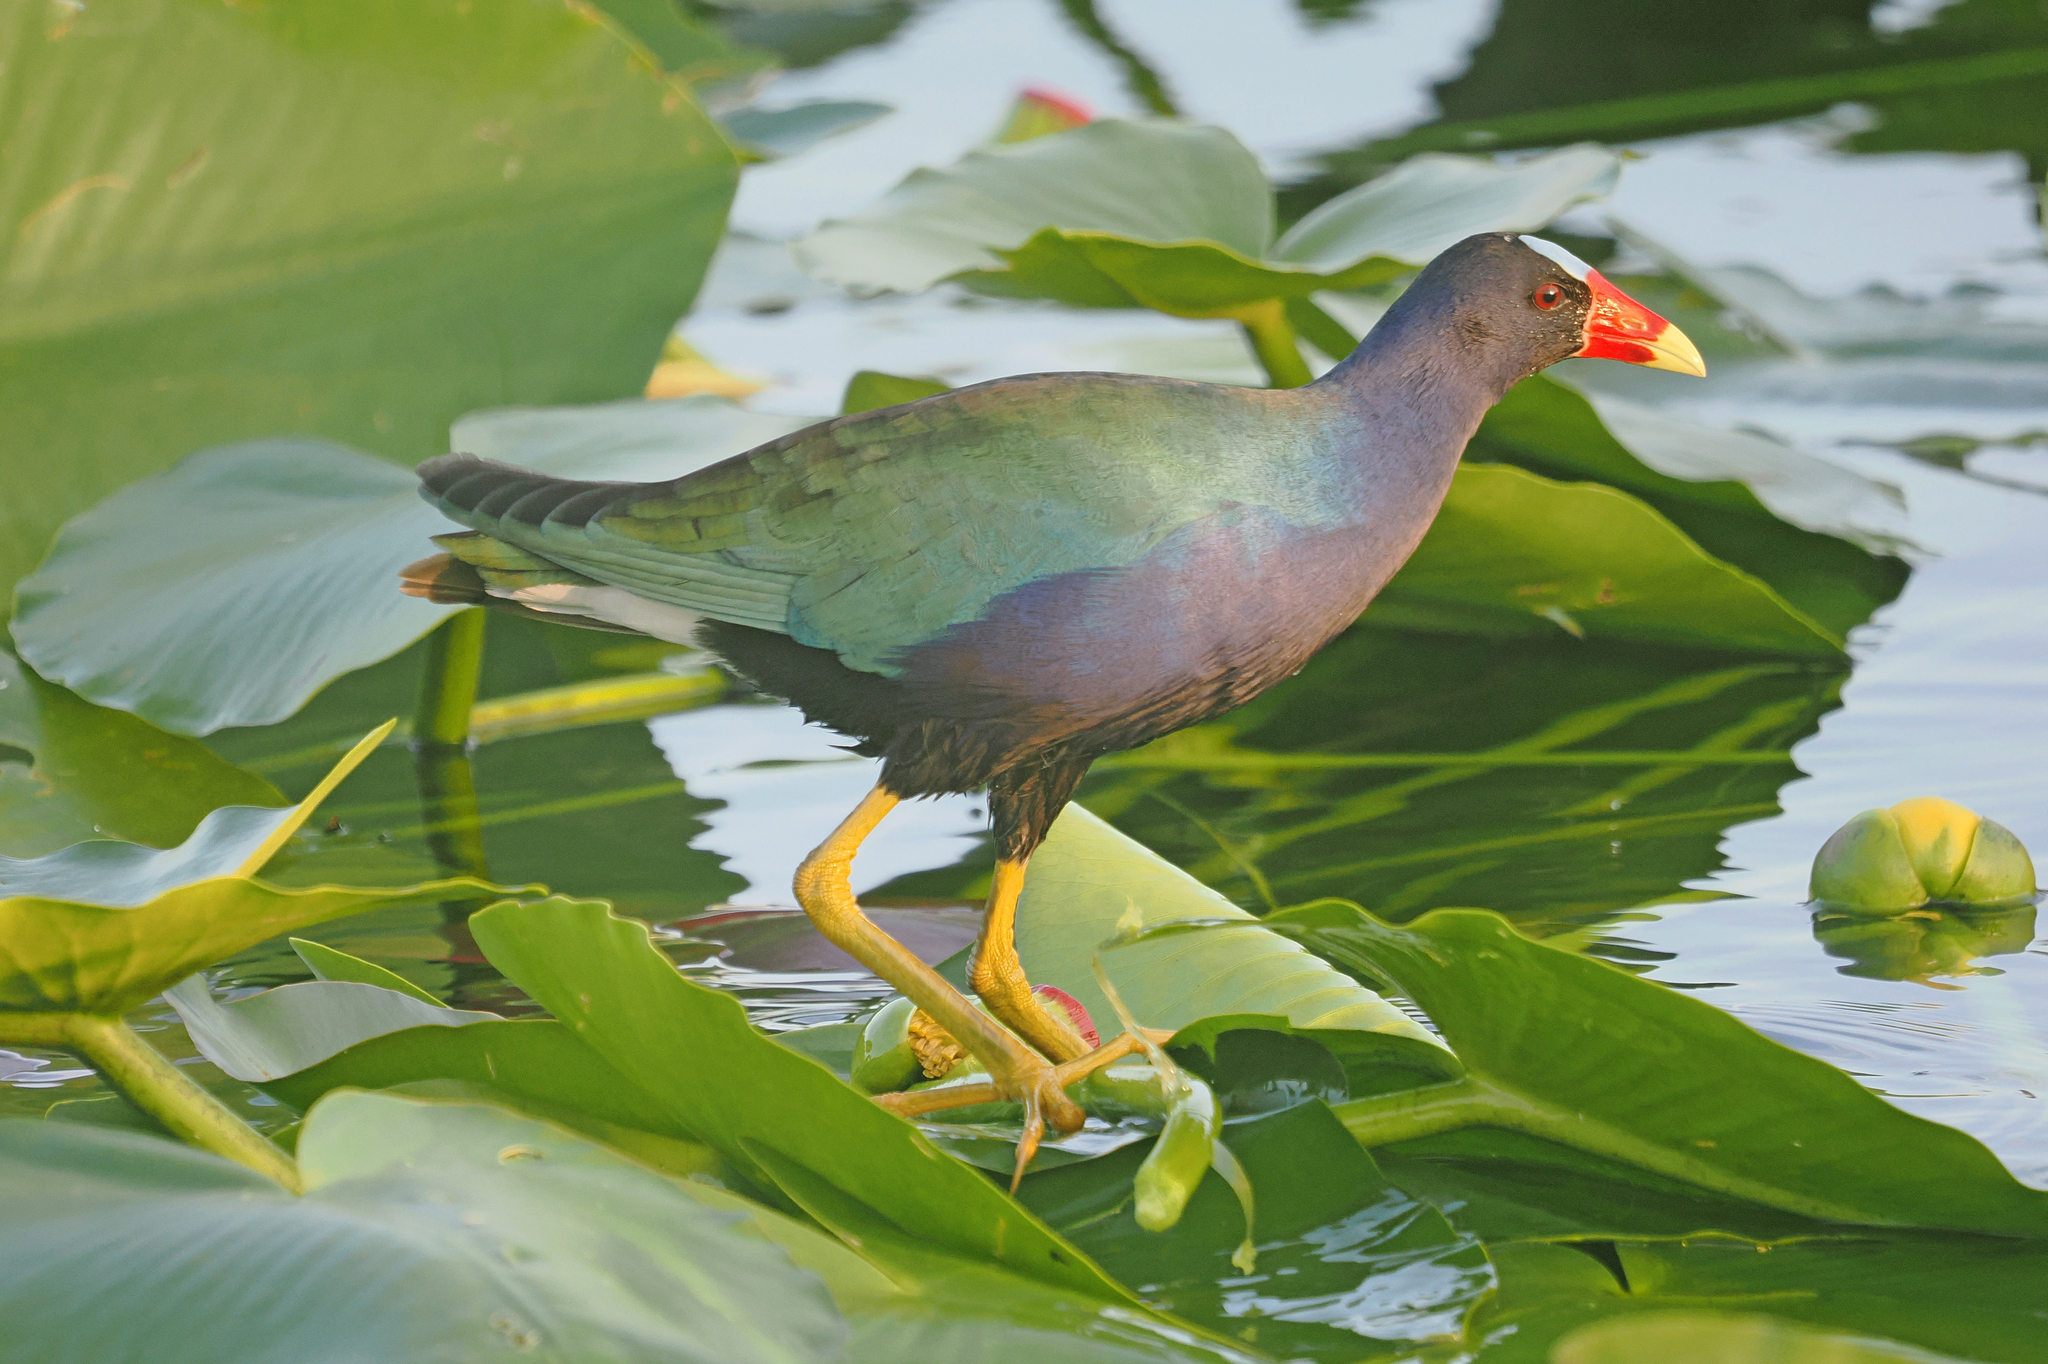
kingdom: Animalia
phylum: Chordata
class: Aves
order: Gruiformes
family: Rallidae
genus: Porphyrio
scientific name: Porphyrio martinica
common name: Purple gallinule
